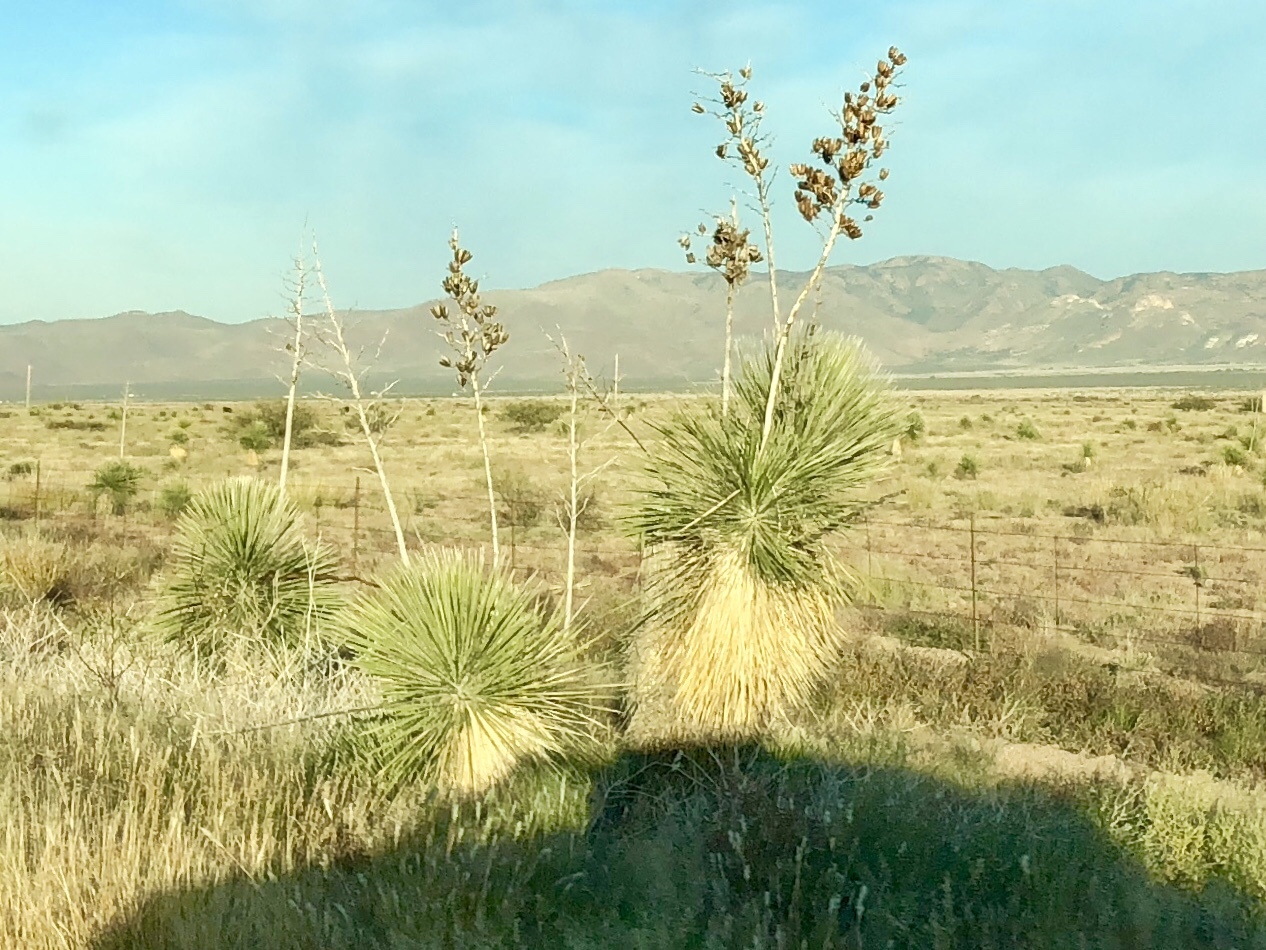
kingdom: Plantae
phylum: Tracheophyta
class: Liliopsida
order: Asparagales
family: Asparagaceae
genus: Yucca
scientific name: Yucca elata
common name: Palmella
